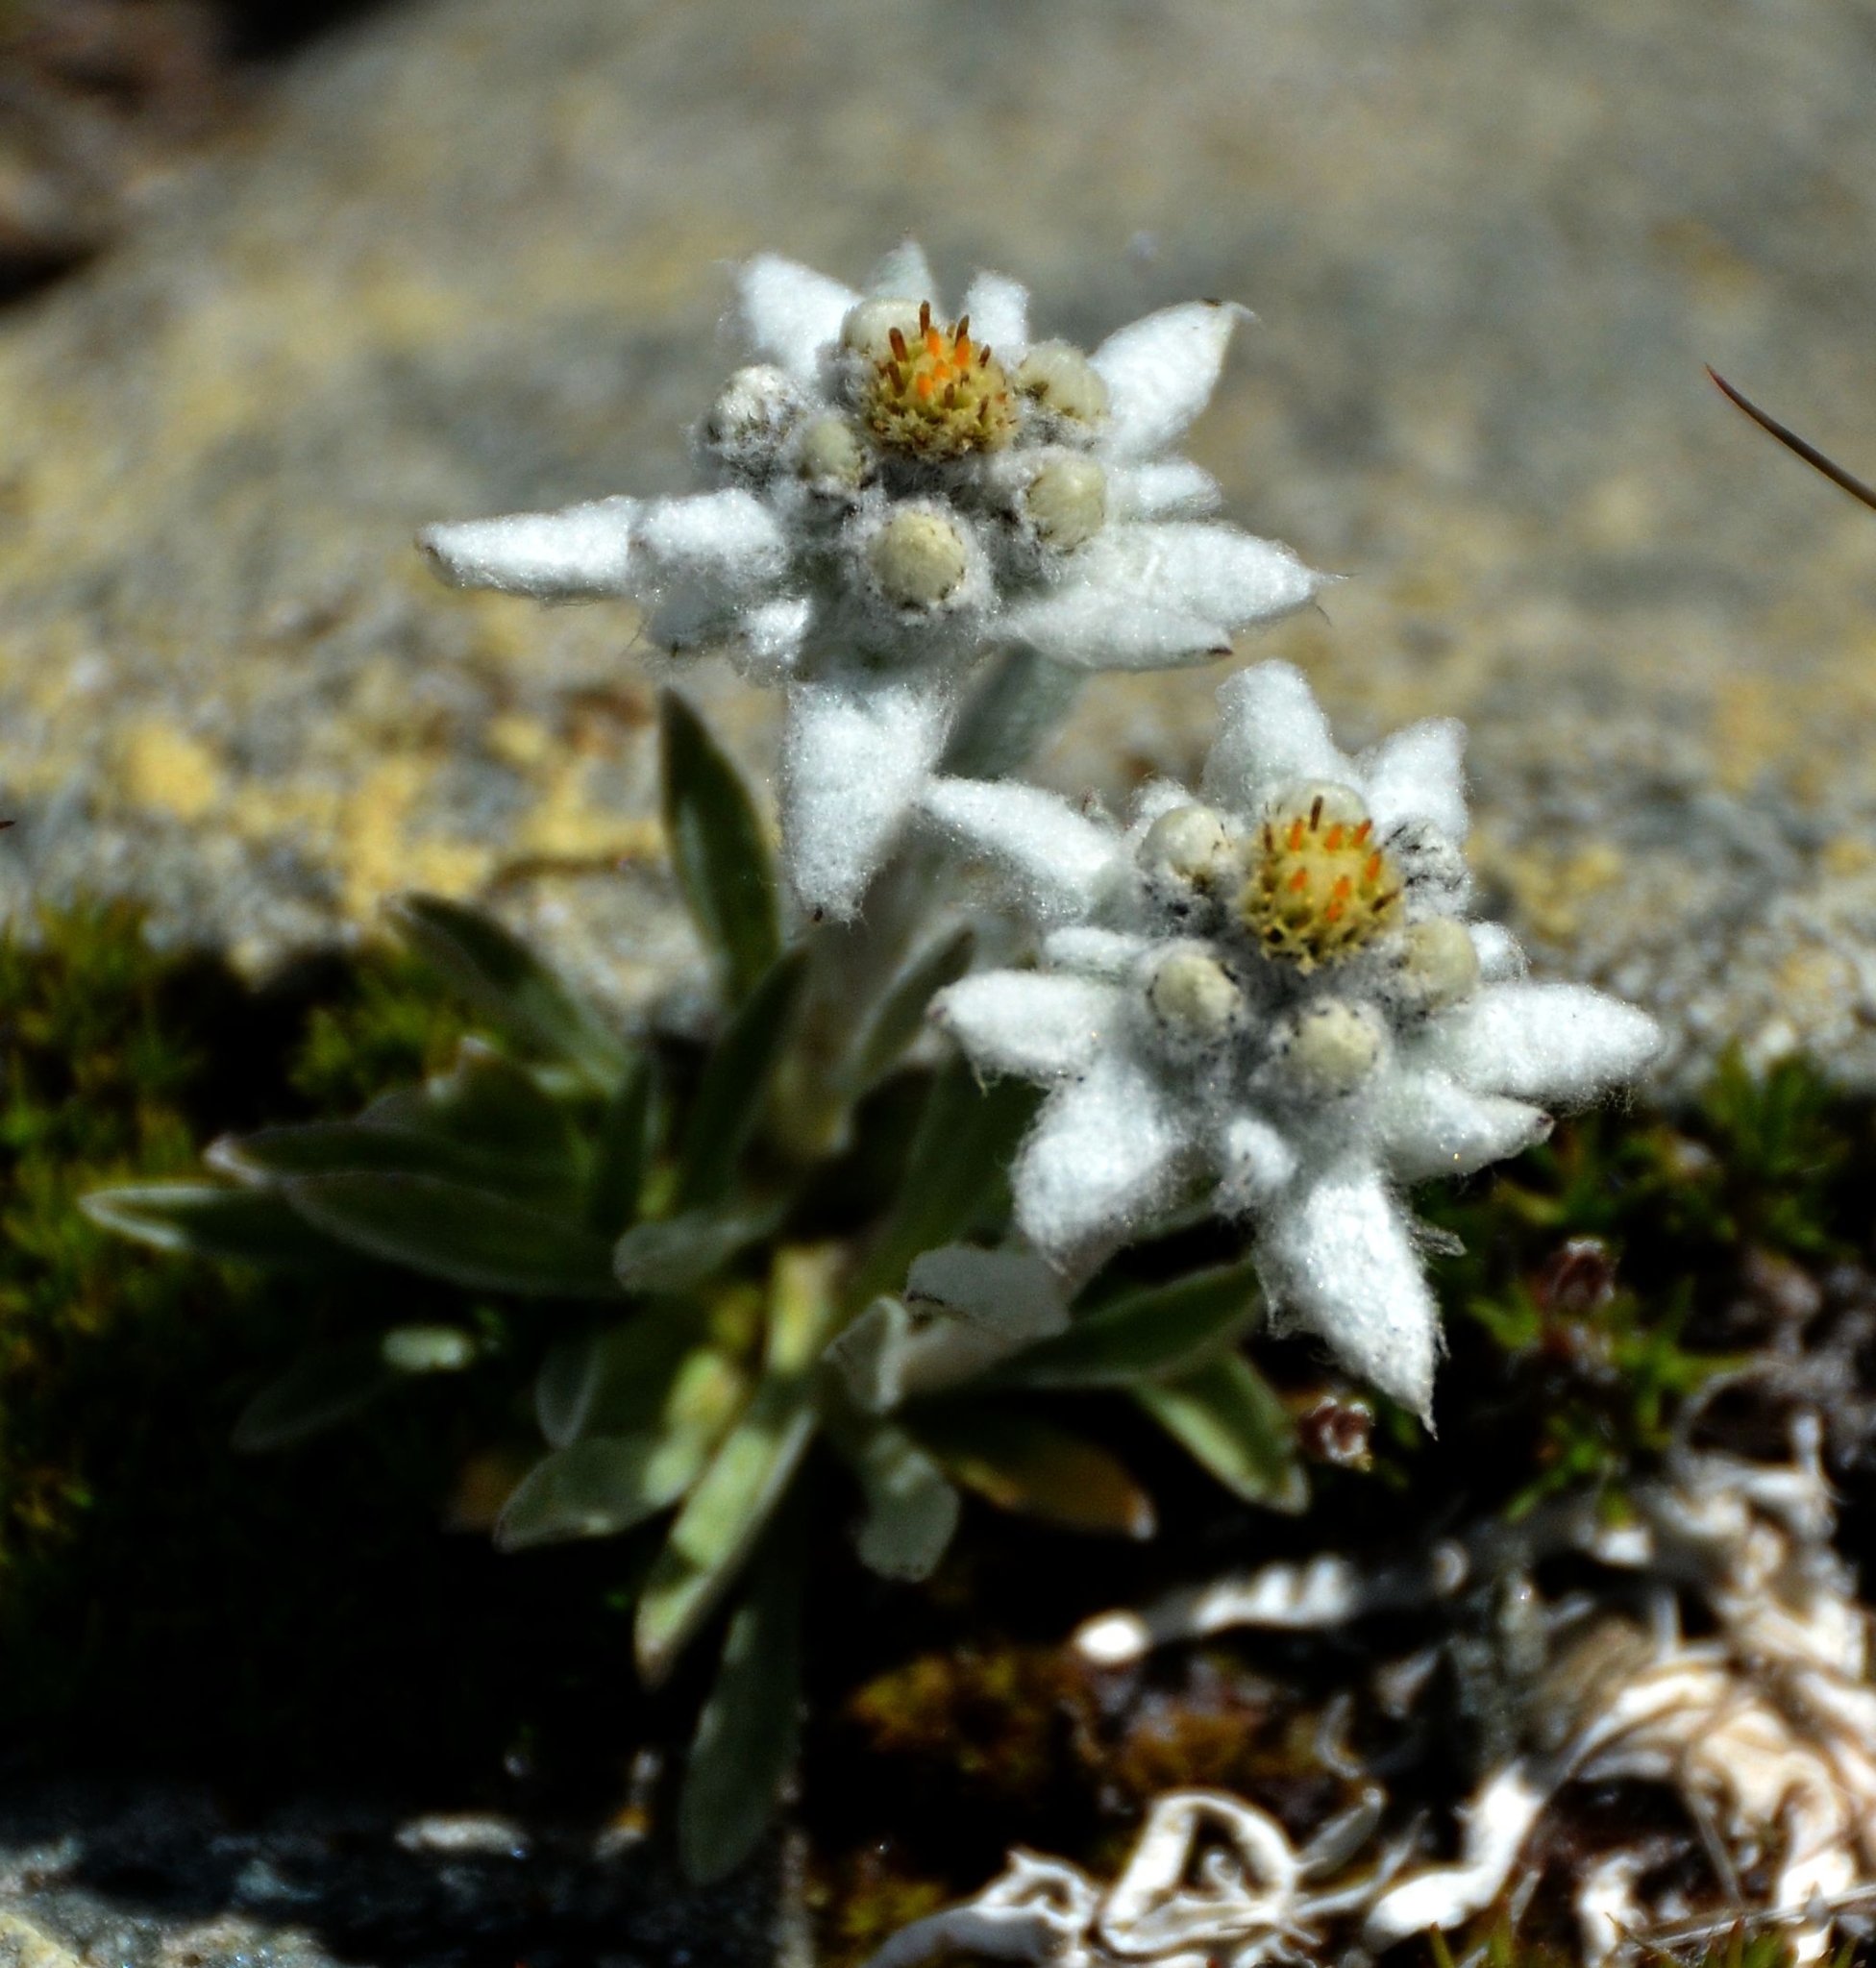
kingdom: Plantae
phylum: Tracheophyta
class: Magnoliopsida
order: Asterales
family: Asteraceae
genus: Leontopodium
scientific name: Leontopodium nivale
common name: Edelweiss
